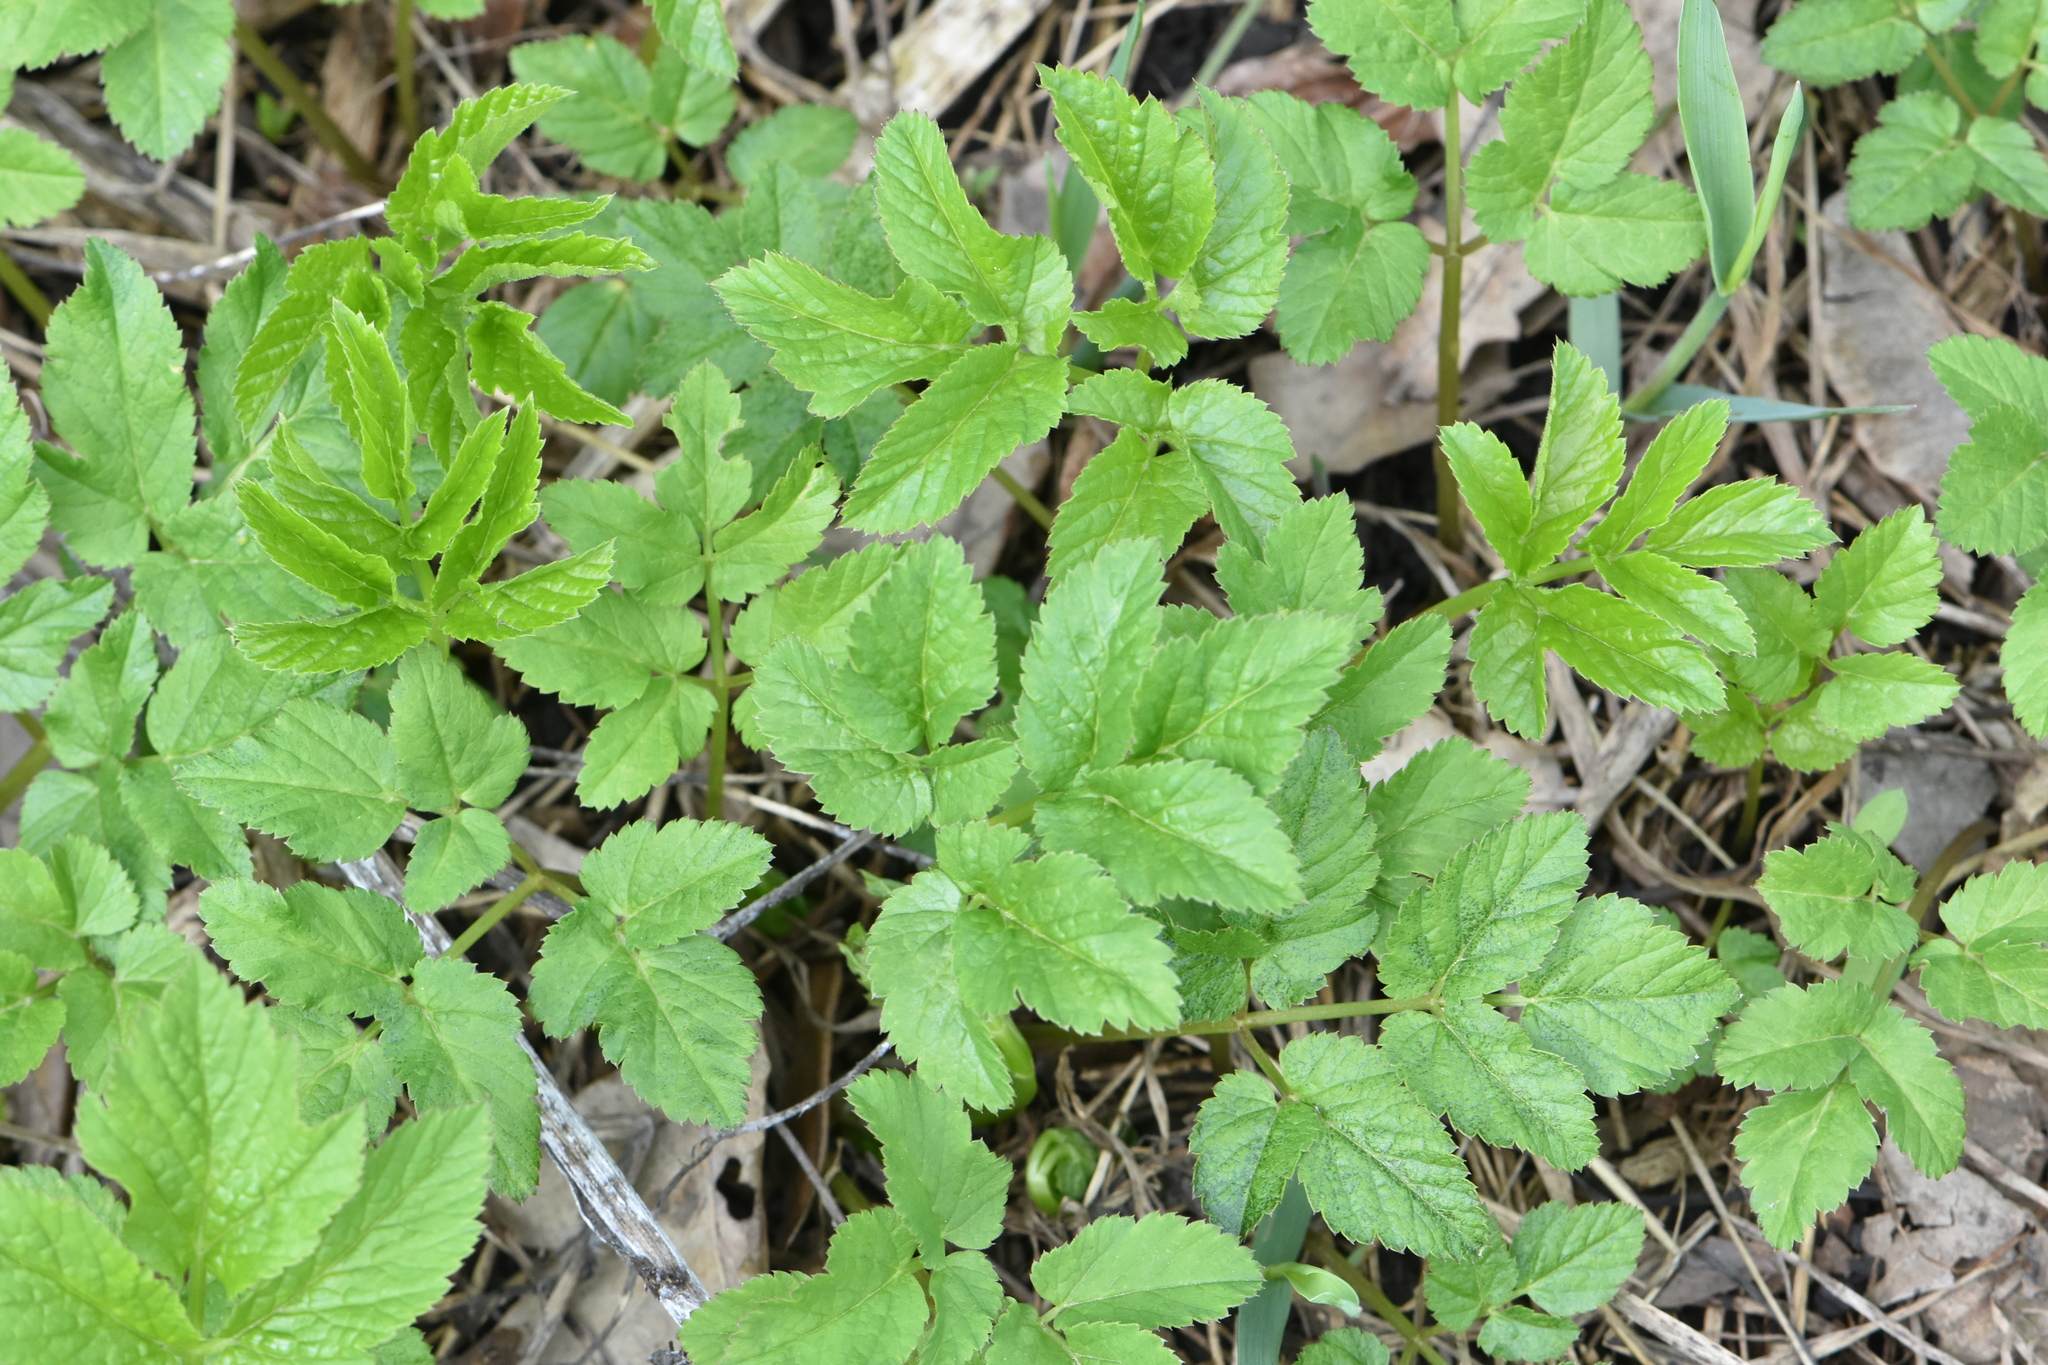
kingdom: Plantae
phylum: Tracheophyta
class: Magnoliopsida
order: Apiales
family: Apiaceae
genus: Aegopodium
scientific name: Aegopodium podagraria
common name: Ground-elder
